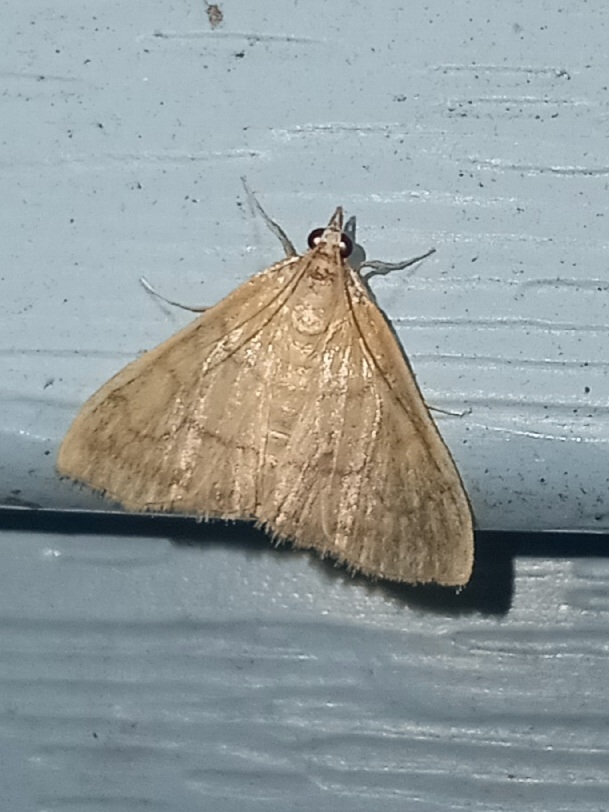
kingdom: Animalia
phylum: Arthropoda
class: Insecta
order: Lepidoptera
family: Crambidae
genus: Hahncappsia
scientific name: Hahncappsia mancalis
